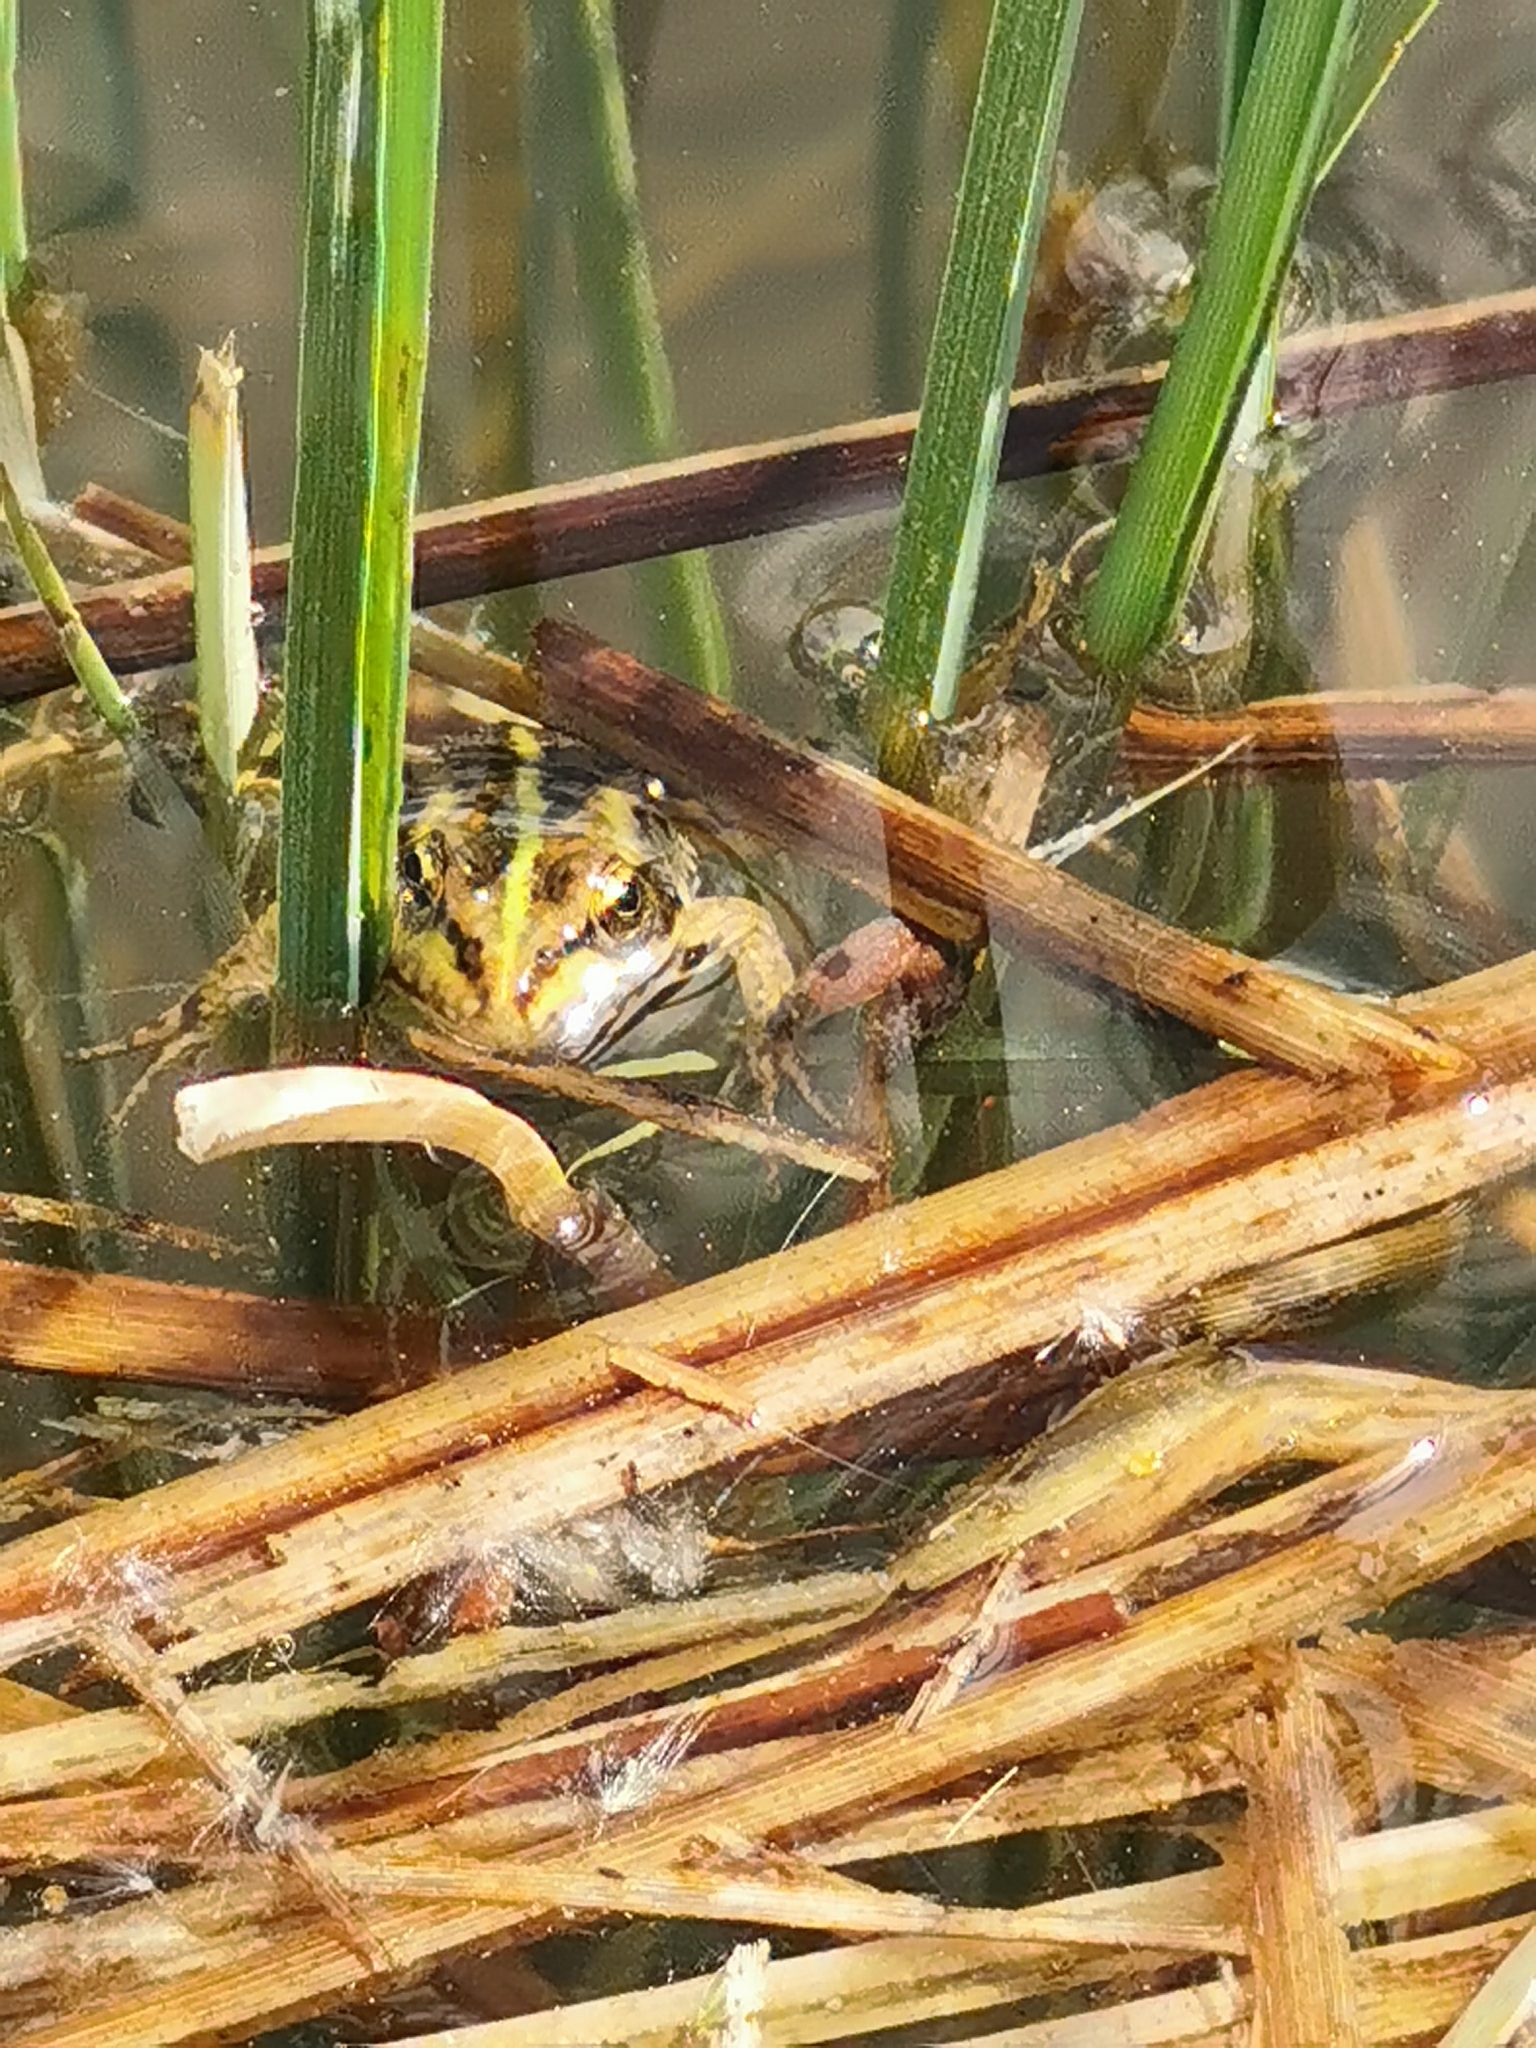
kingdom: Animalia
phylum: Chordata
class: Amphibia
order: Anura
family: Ranidae
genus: Pelophylax
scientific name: Pelophylax
